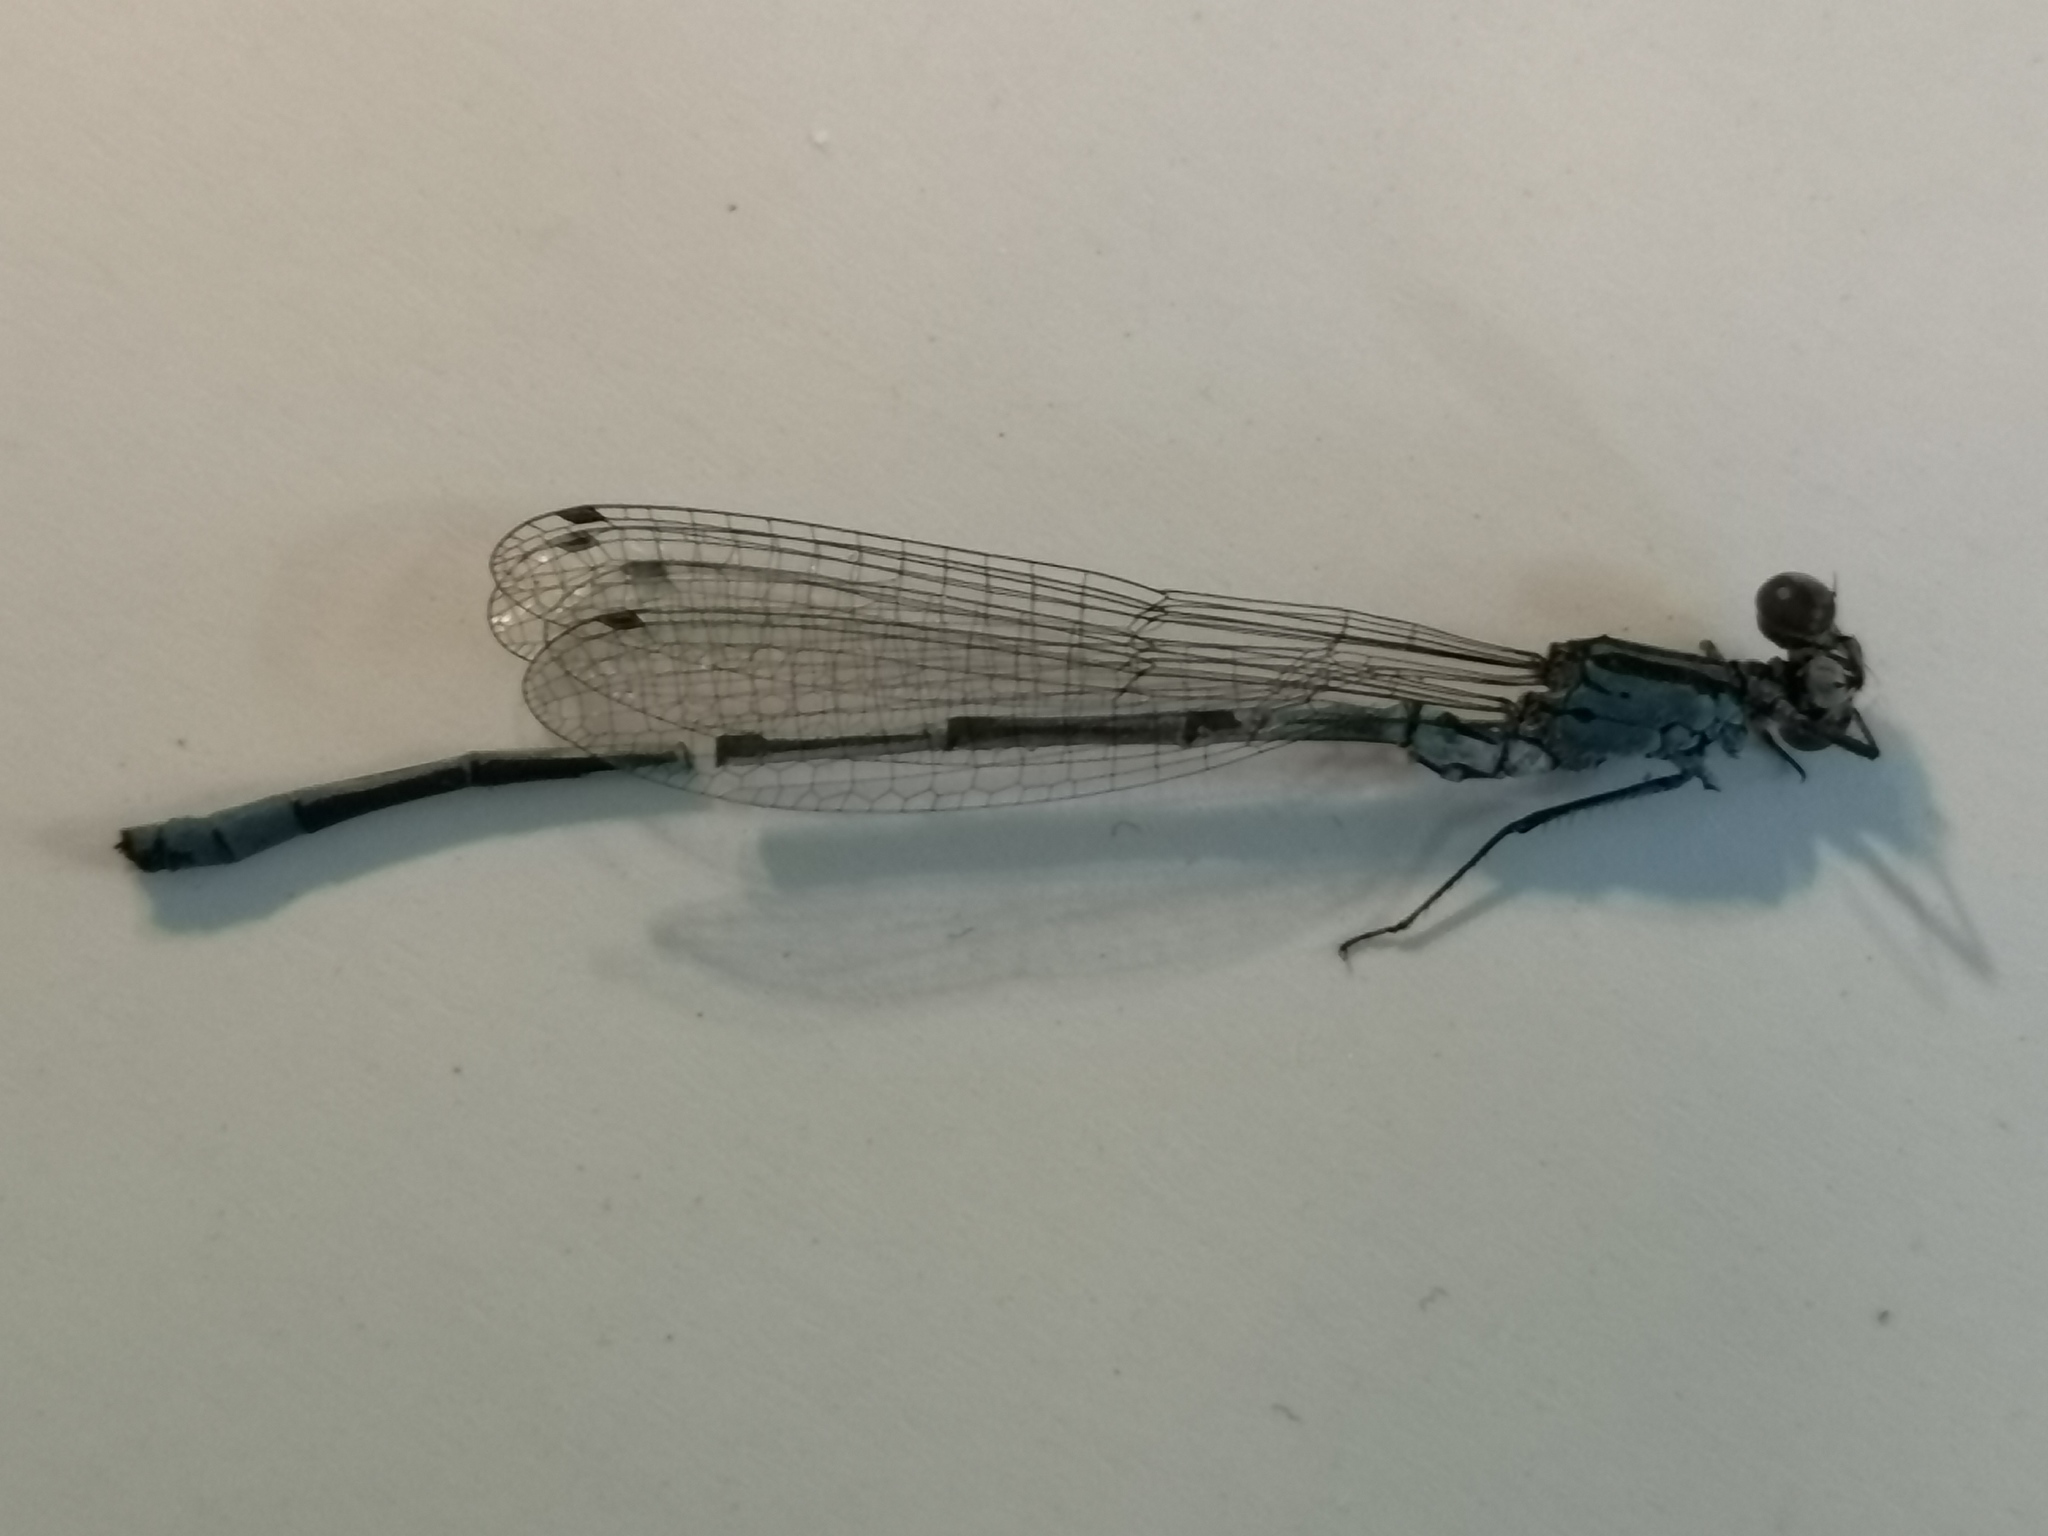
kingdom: Animalia
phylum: Arthropoda
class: Insecta
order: Odonata
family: Coenagrionidae
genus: Coenagrion
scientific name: Coenagrion puella
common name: Azure damselfly
